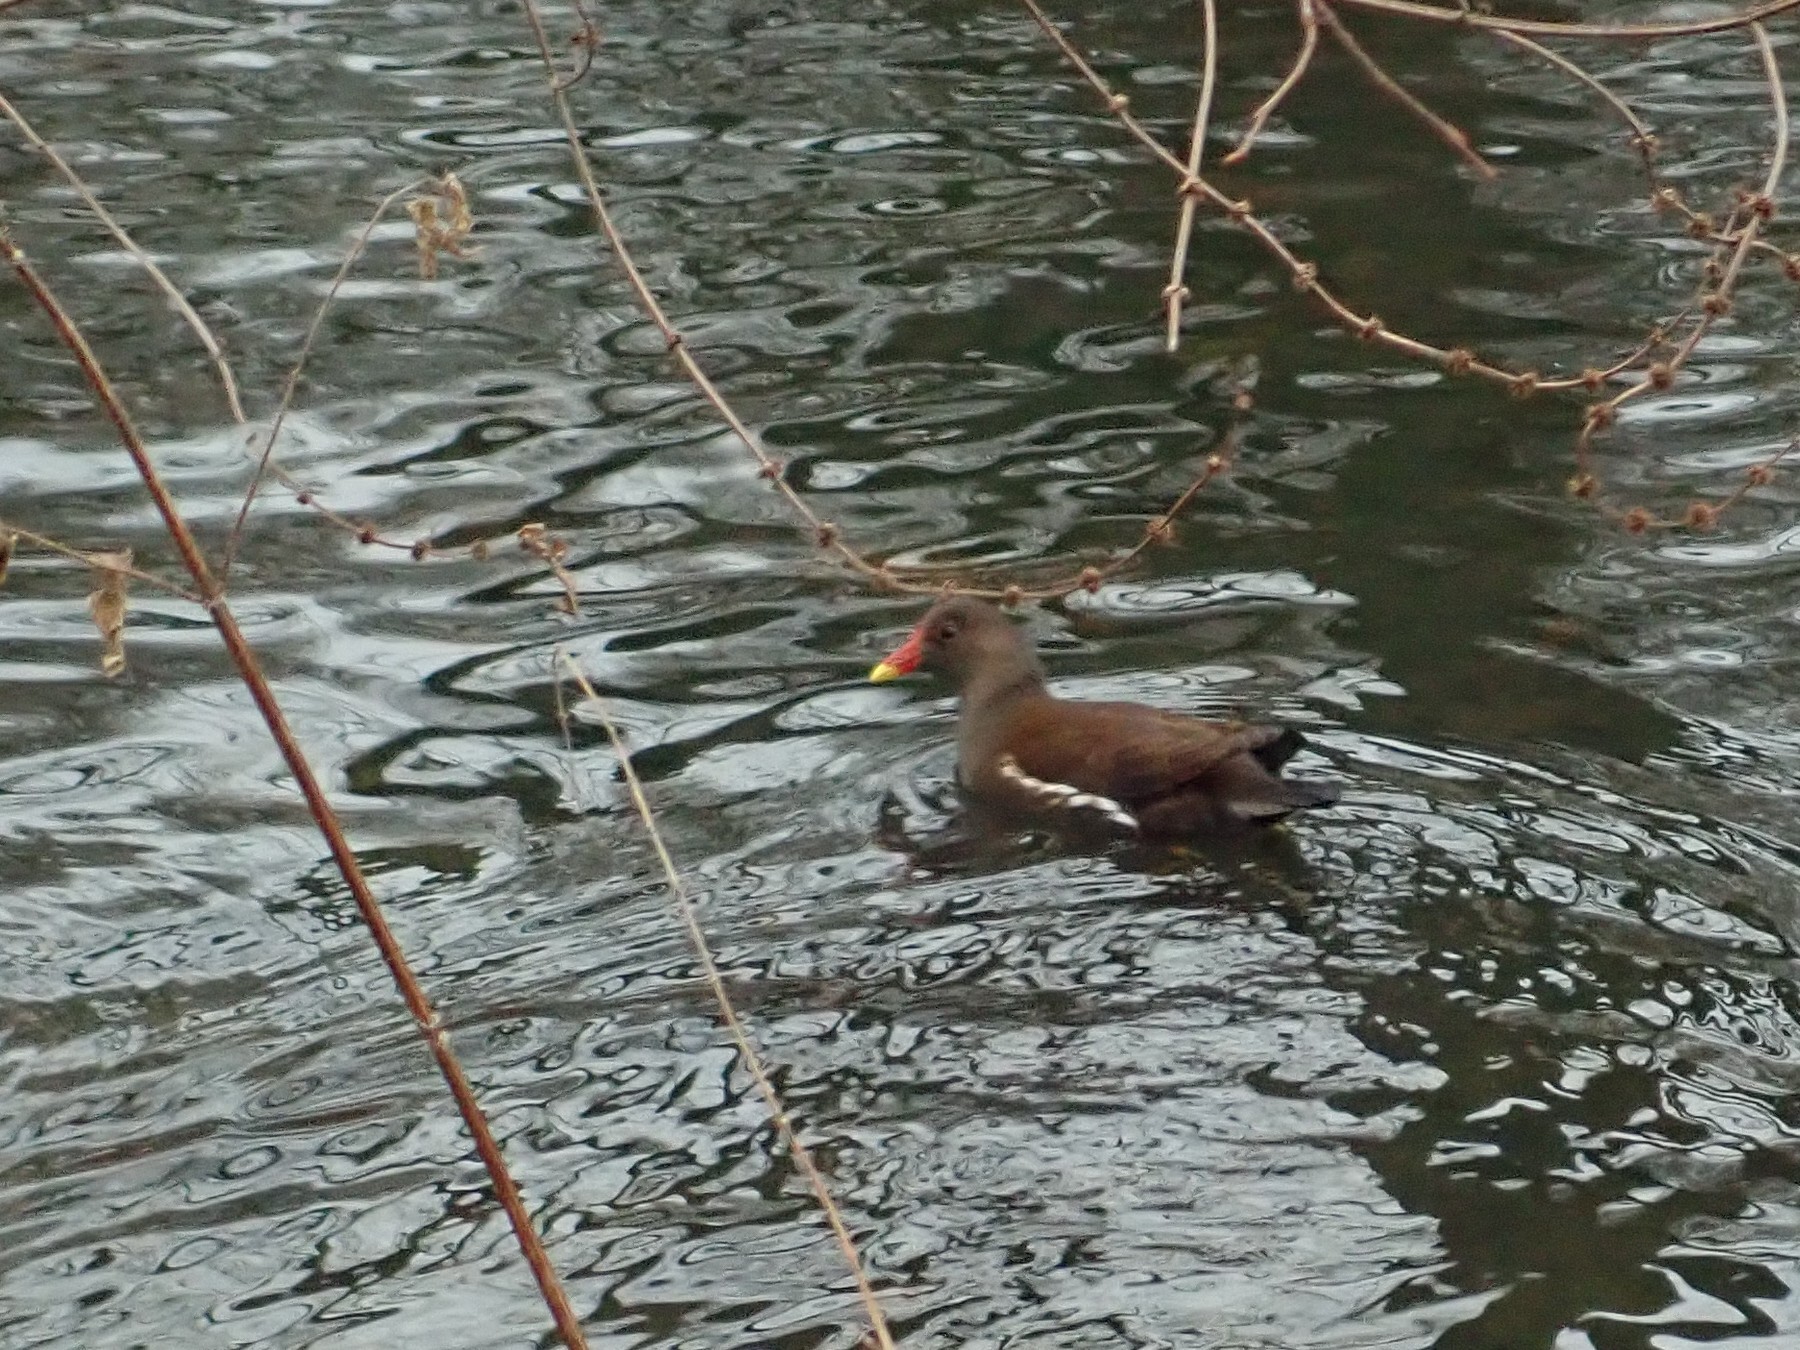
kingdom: Animalia
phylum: Chordata
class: Aves
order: Gruiformes
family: Rallidae
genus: Gallinula
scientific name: Gallinula chloropus
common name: Common moorhen
